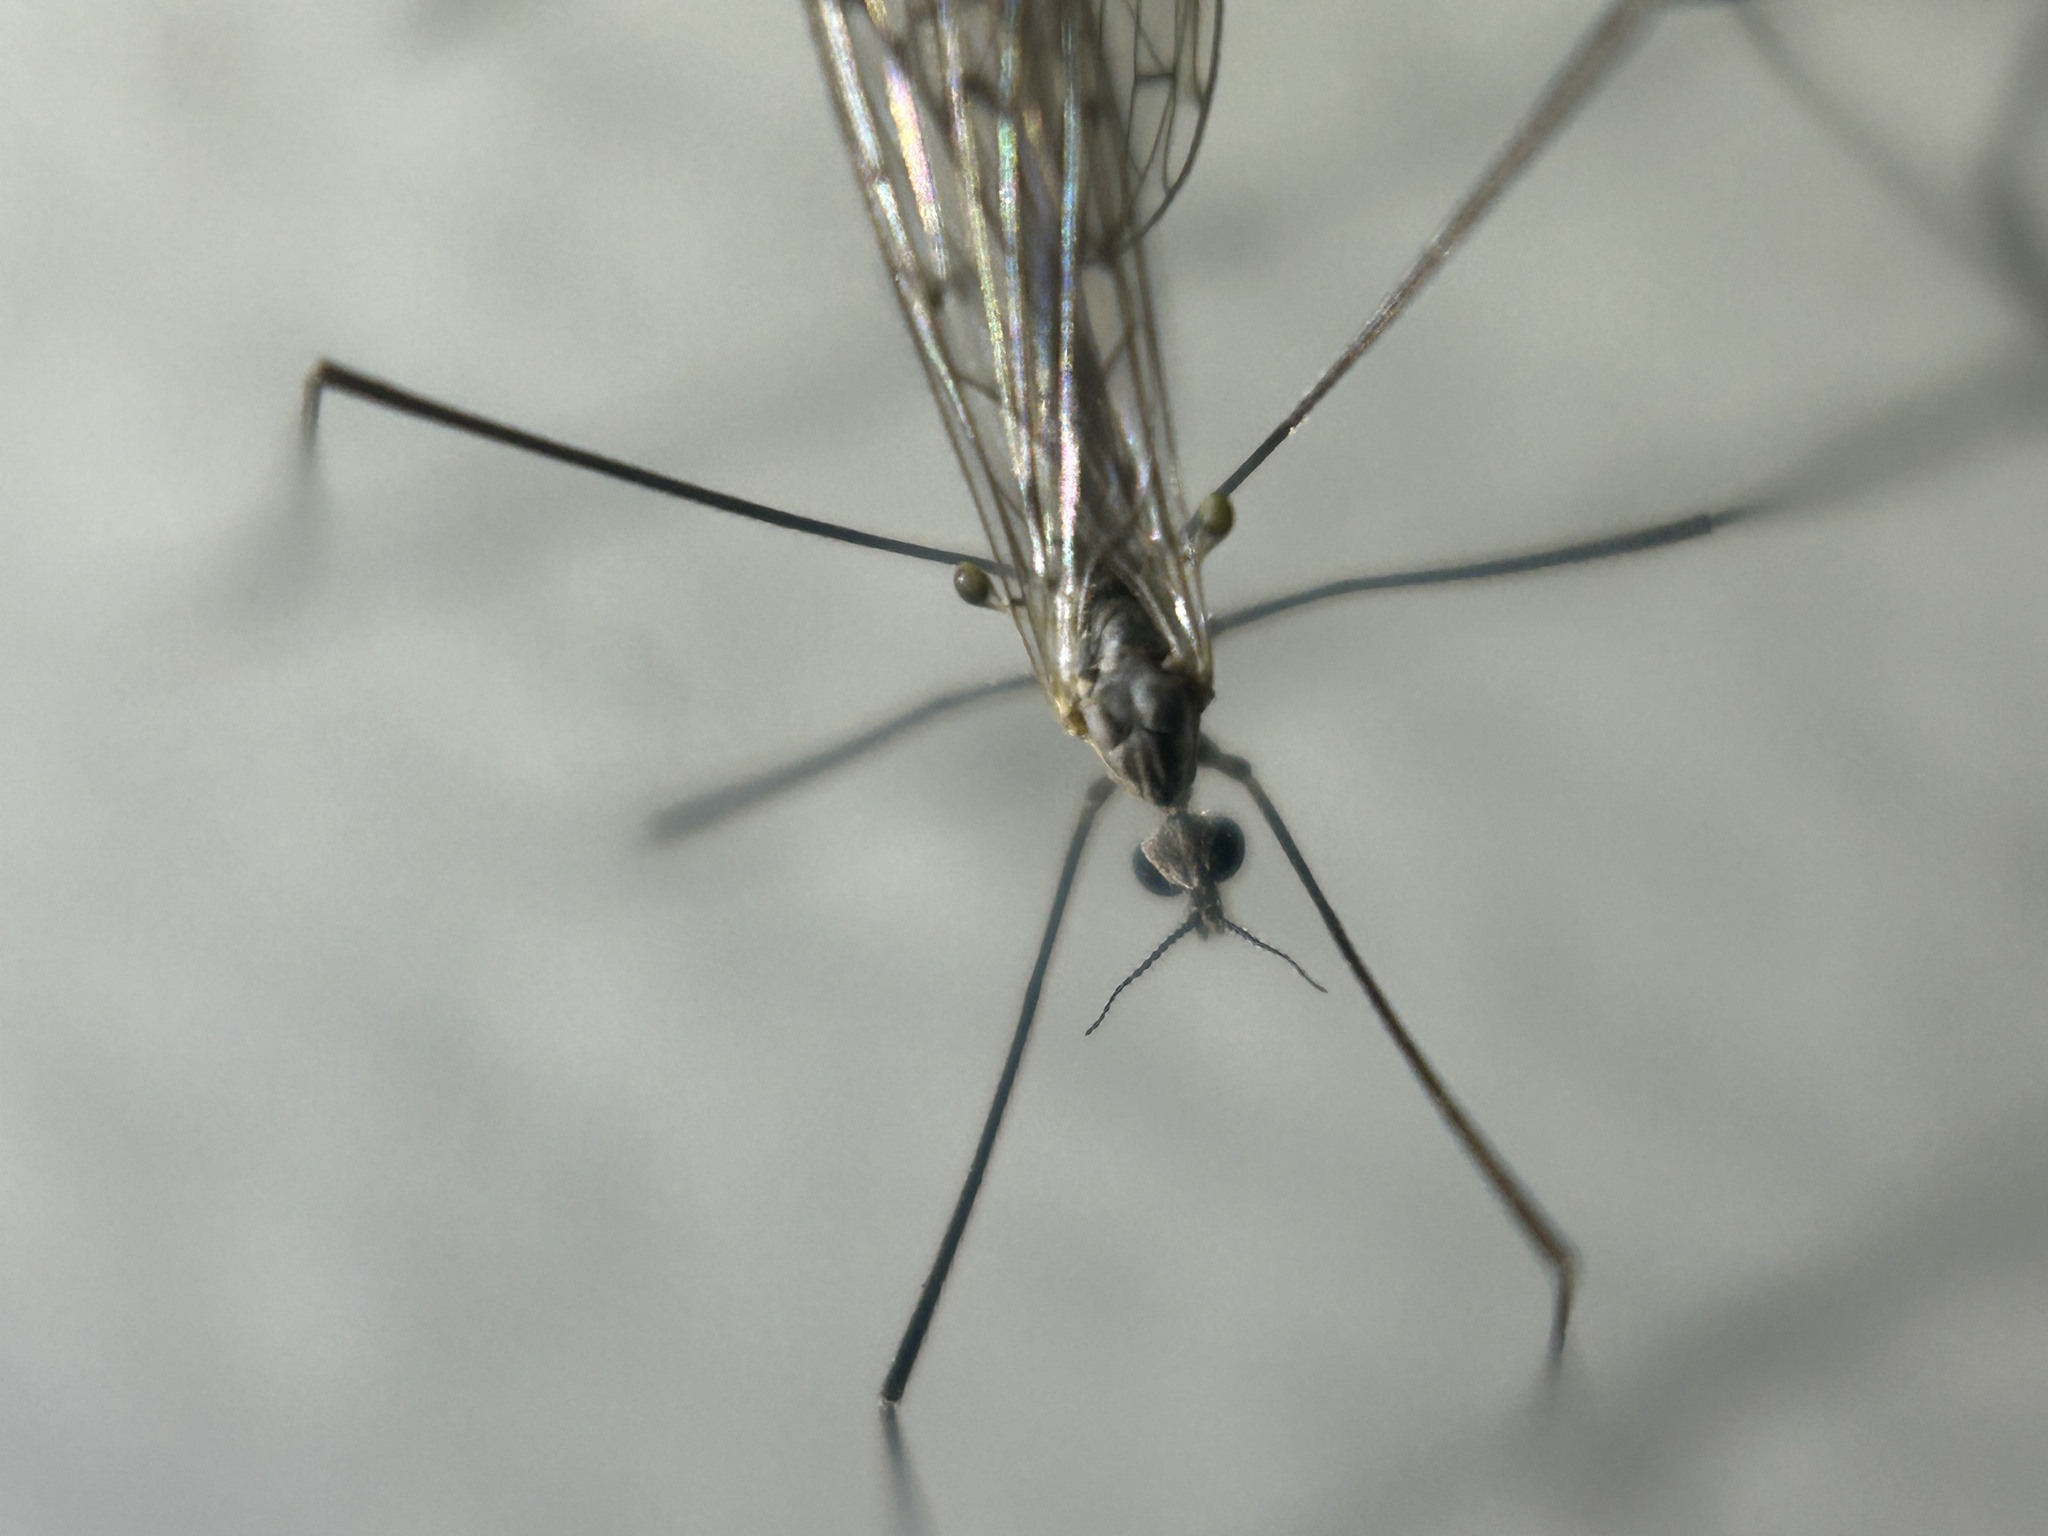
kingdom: Animalia
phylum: Arthropoda
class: Insecta
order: Diptera
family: Limoniidae
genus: Symplecta
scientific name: Symplecta cana
